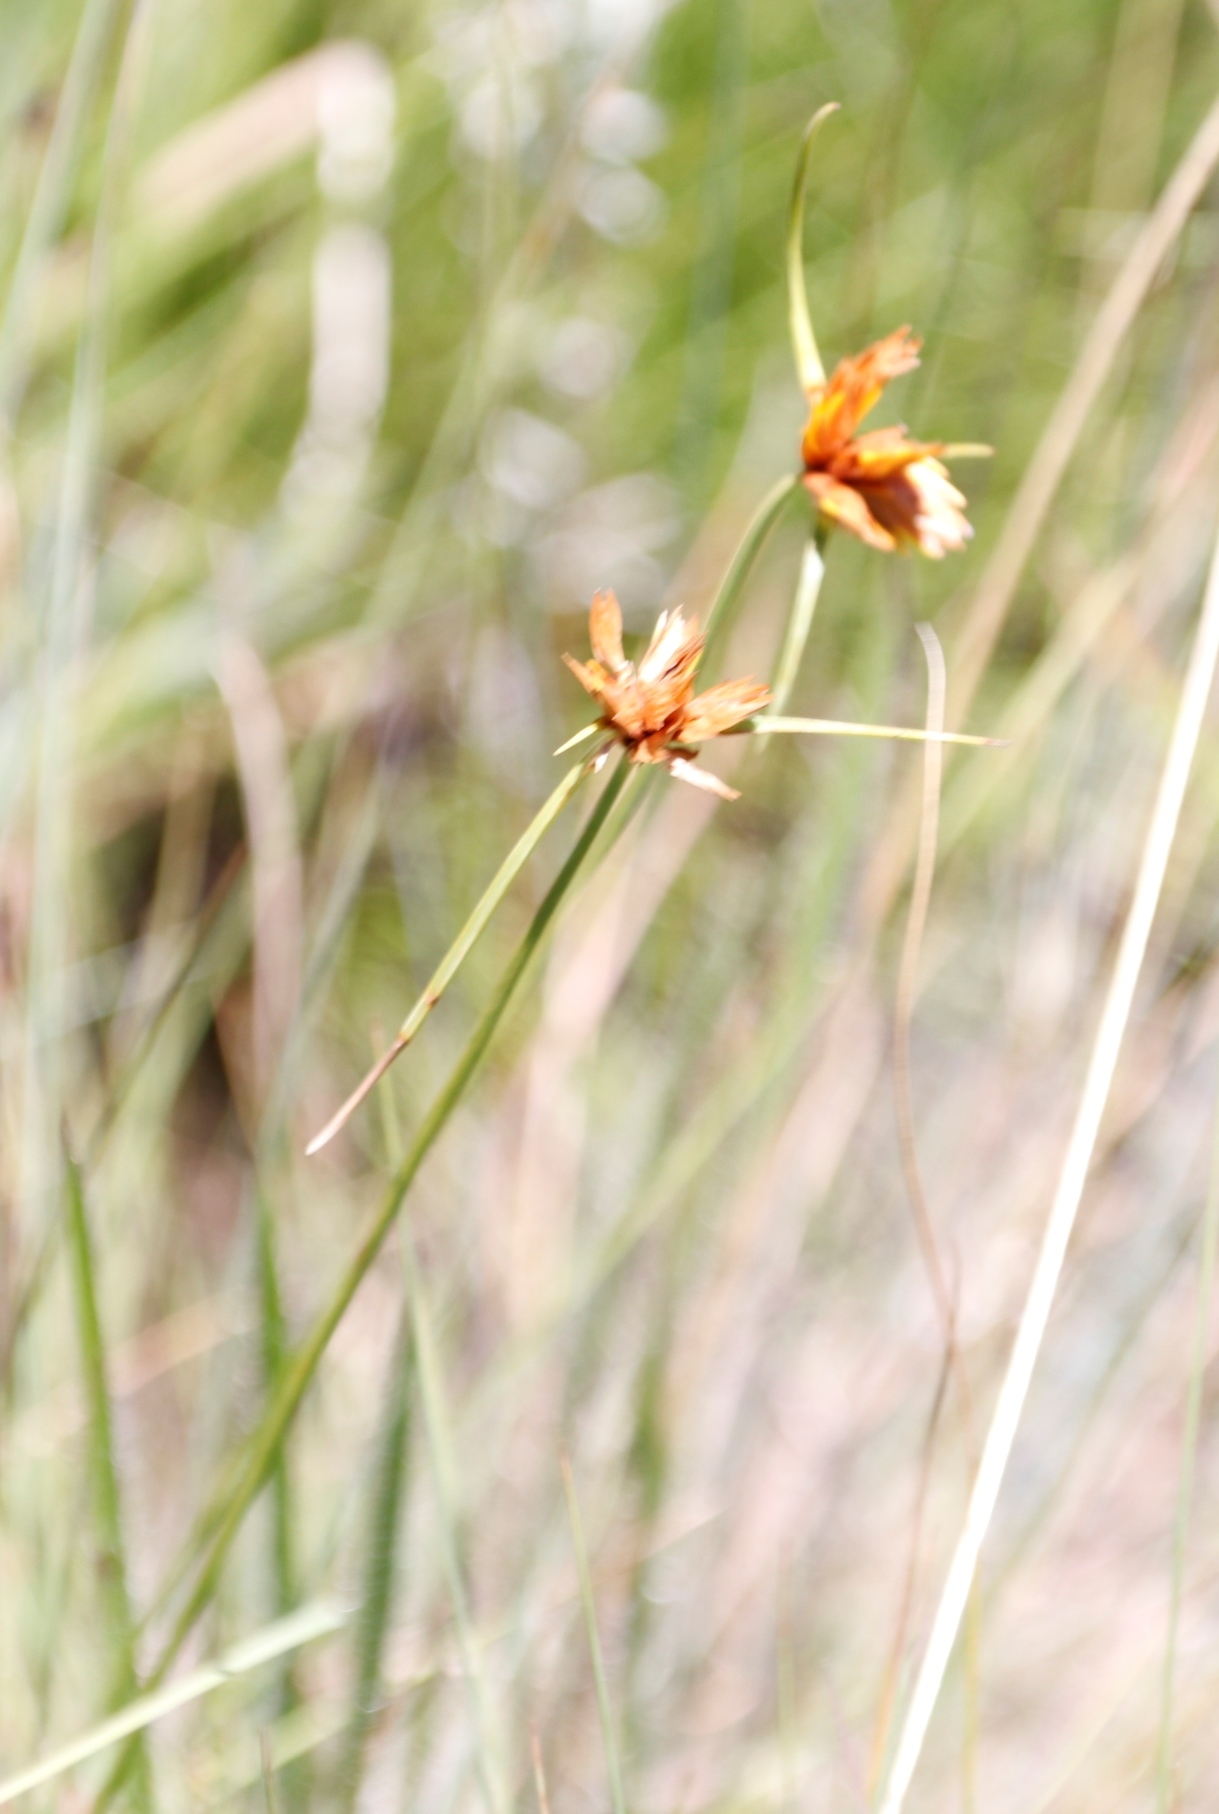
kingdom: Plantae
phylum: Tracheophyta
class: Liliopsida
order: Poales
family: Cyperaceae
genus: Cyperus
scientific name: Cyperus sphaerocephalus
